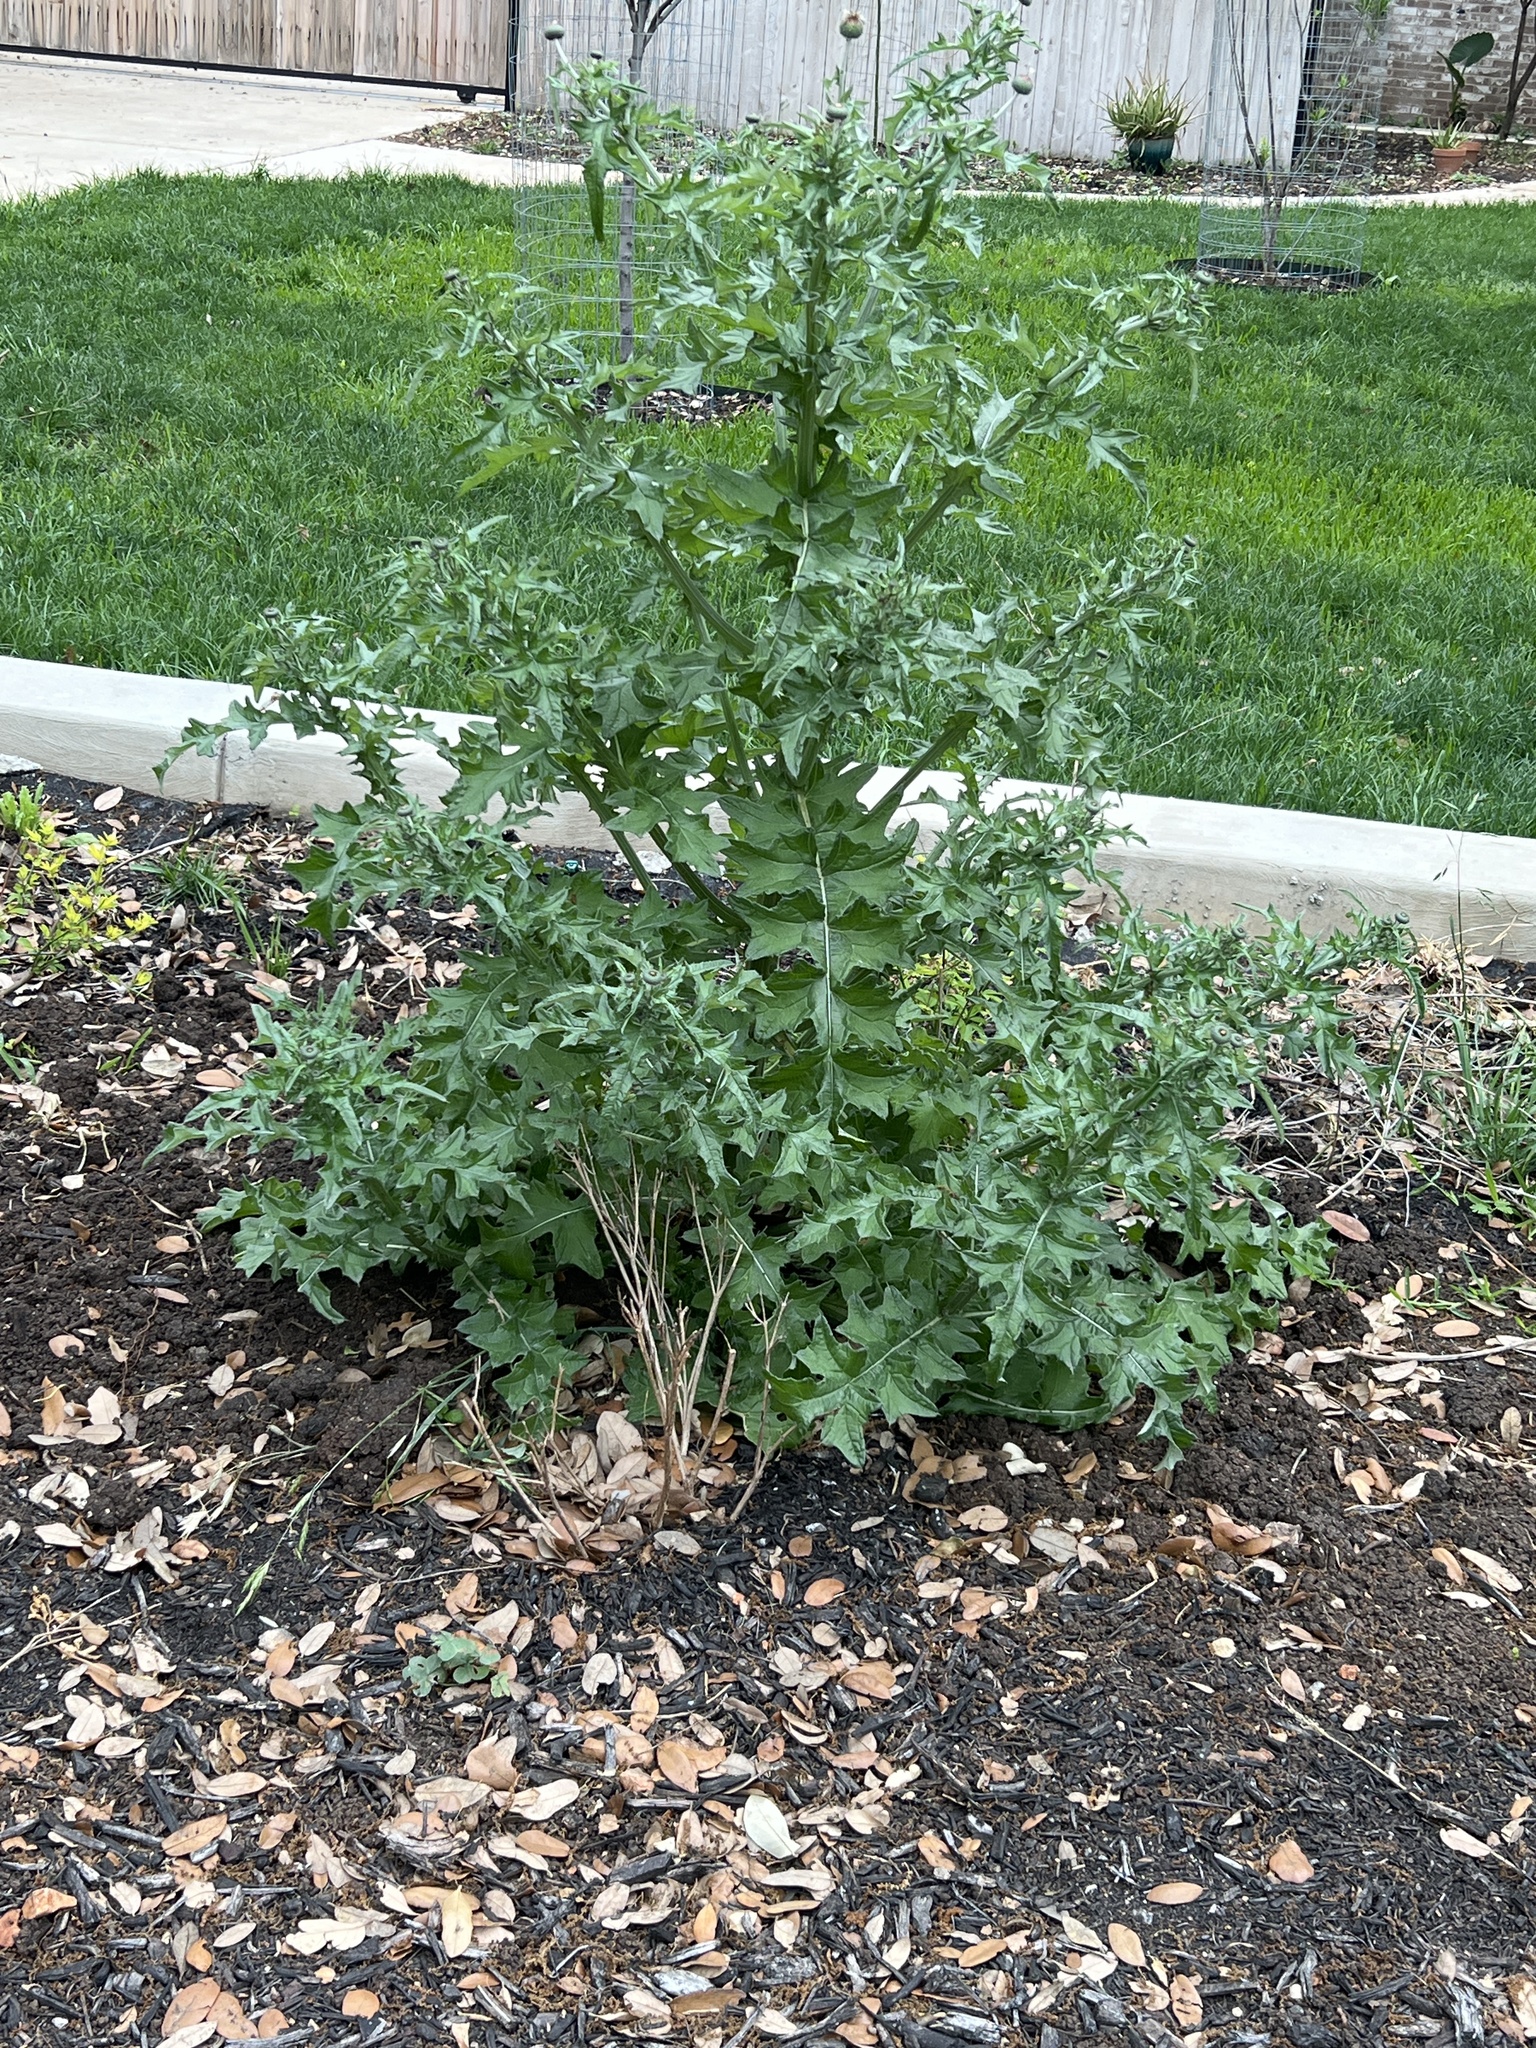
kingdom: Plantae
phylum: Tracheophyta
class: Magnoliopsida
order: Asterales
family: Asteraceae
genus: Cirsium
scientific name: Cirsium texanum
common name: Texas purple thistle
